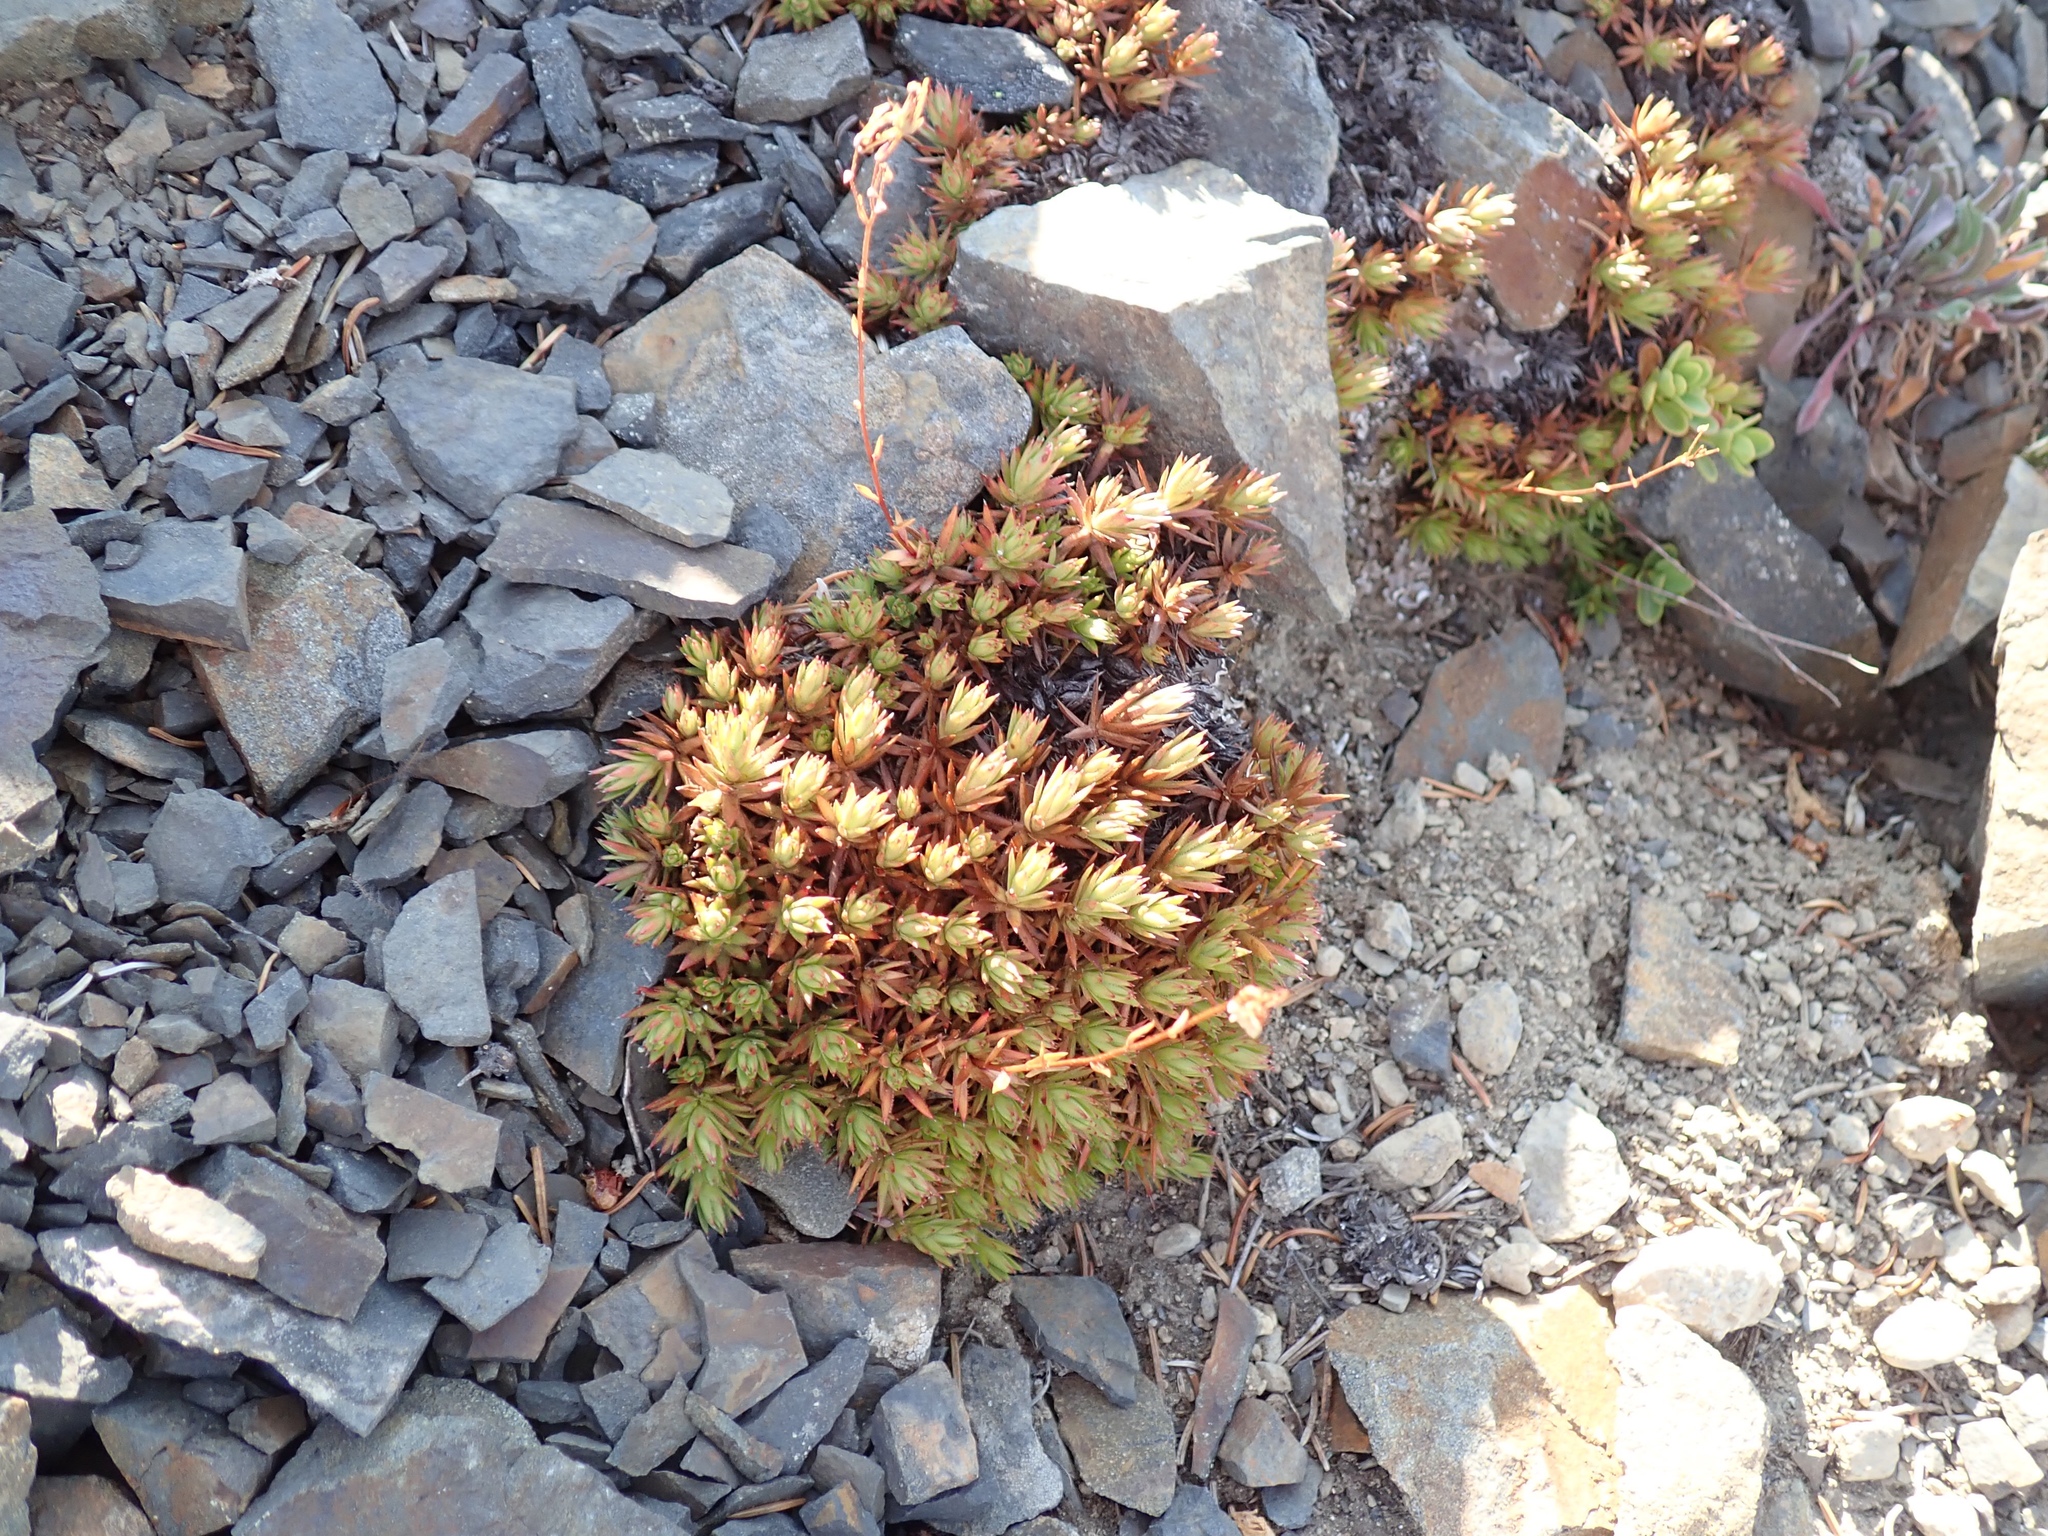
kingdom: Plantae
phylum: Tracheophyta
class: Magnoliopsida
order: Saxifragales
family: Saxifragaceae
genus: Saxifraga
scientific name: Saxifraga bronchialis
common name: Matted saxifrage
